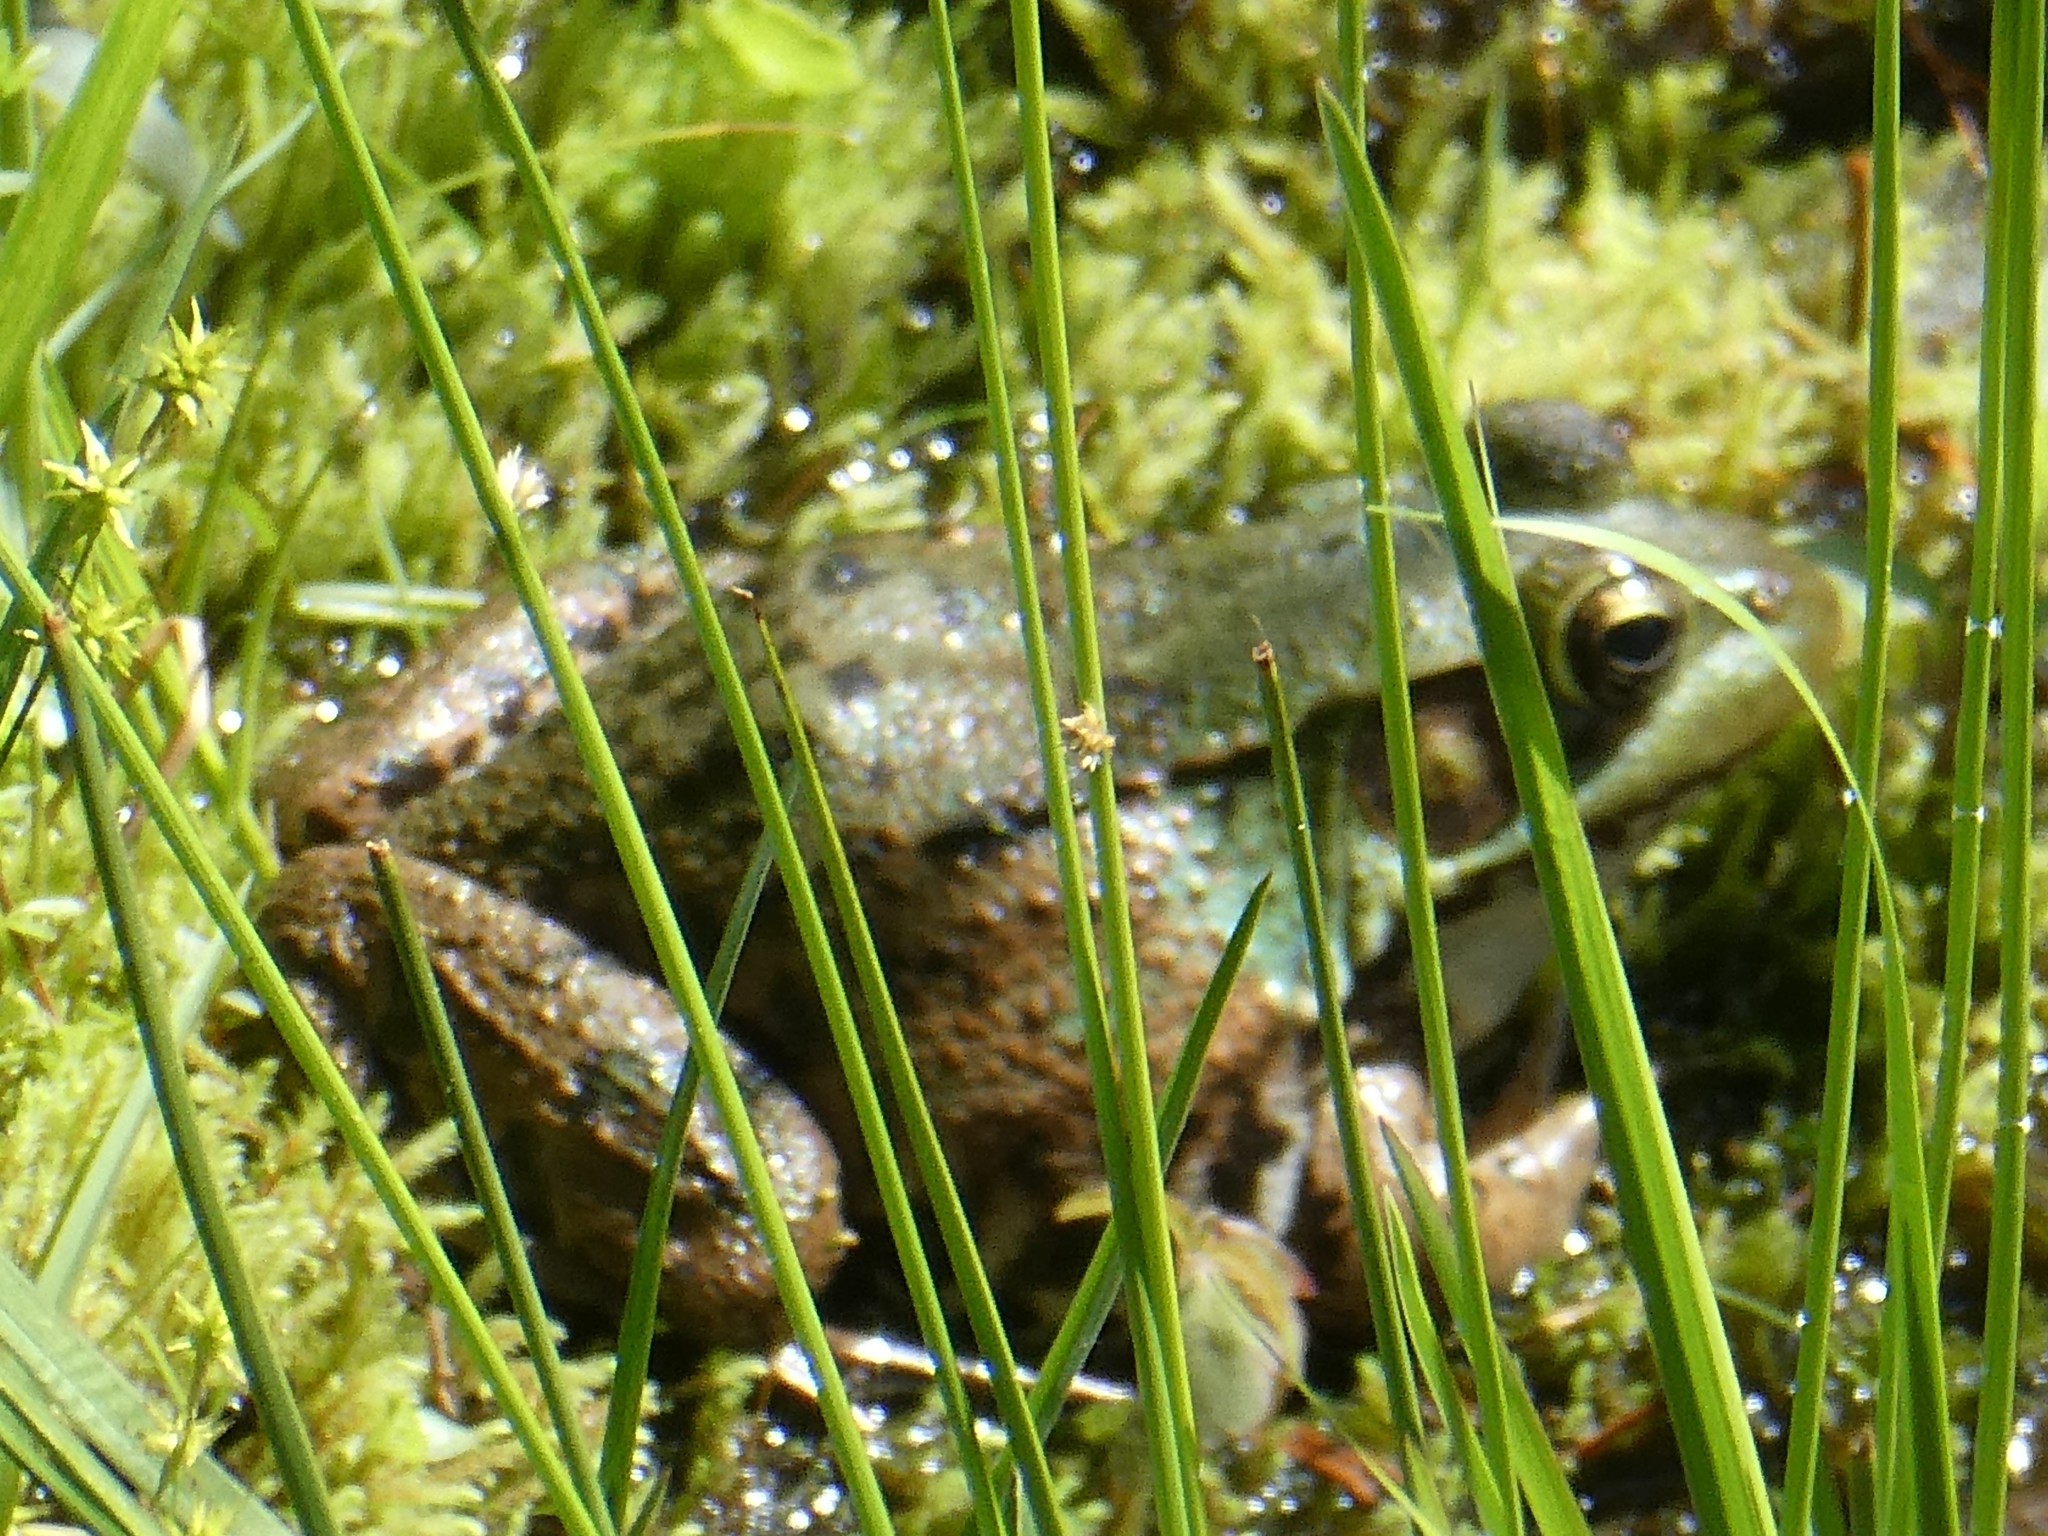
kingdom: Animalia
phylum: Chordata
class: Amphibia
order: Anura
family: Ranidae
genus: Lithobates
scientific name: Lithobates clamitans
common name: Green frog
